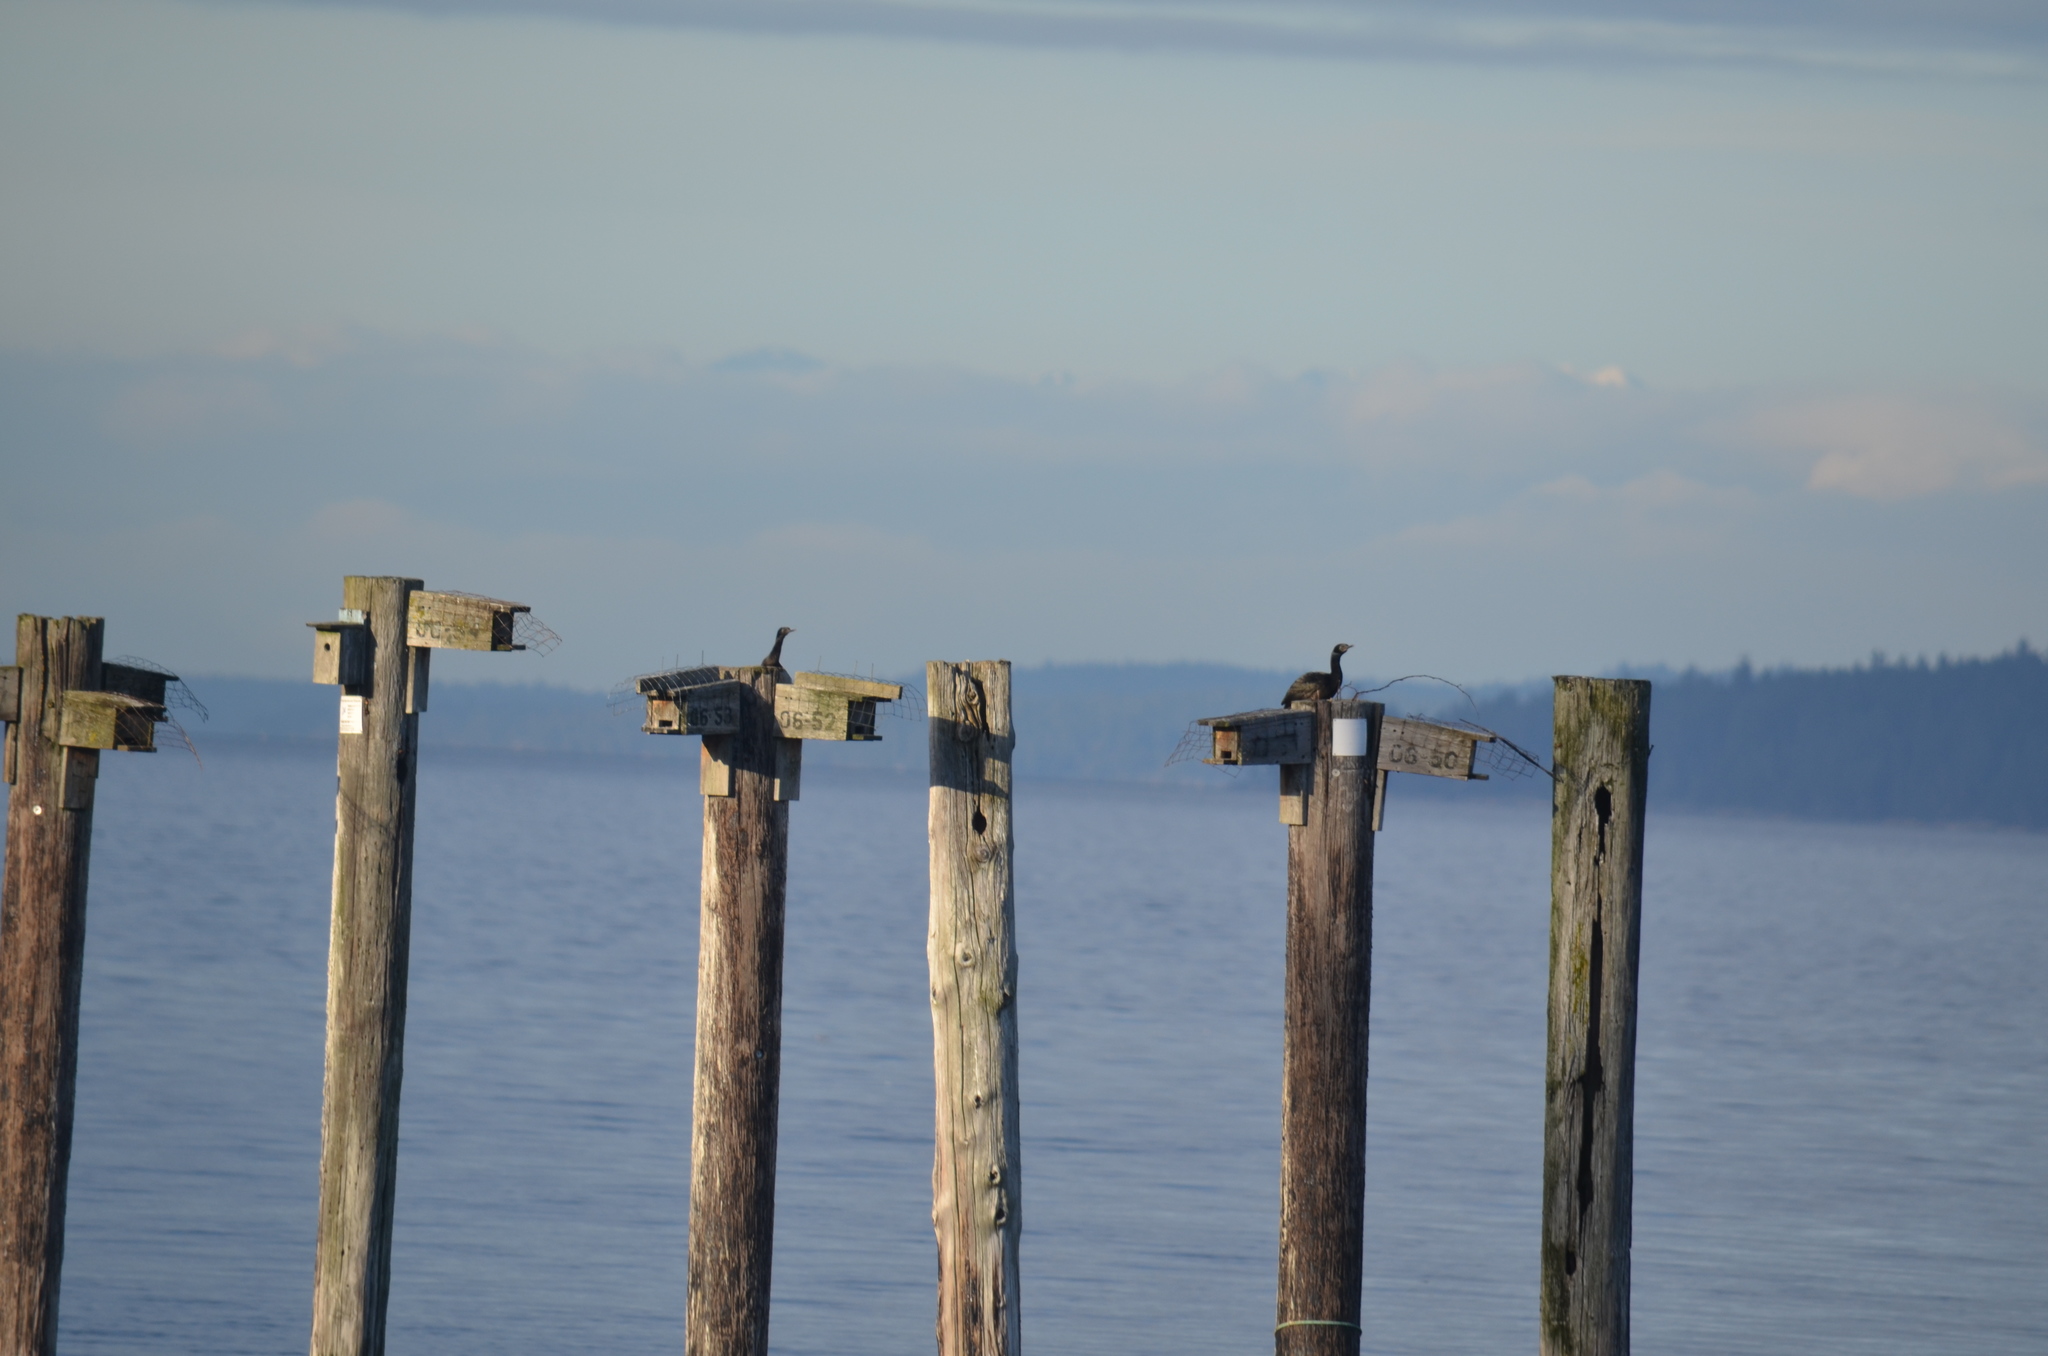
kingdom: Animalia
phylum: Chordata
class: Aves
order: Suliformes
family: Phalacrocoracidae
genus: Phalacrocorax
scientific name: Phalacrocorax pelagicus
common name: Pelagic cormorant
